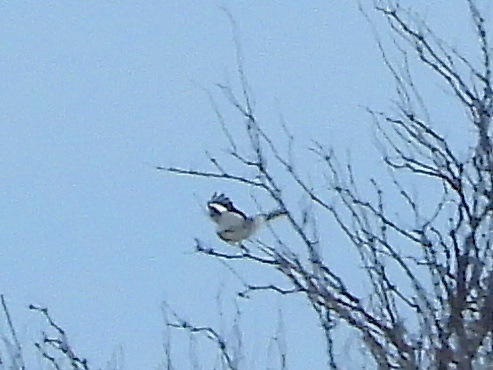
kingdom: Animalia
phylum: Chordata
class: Aves
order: Passeriformes
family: Laniidae
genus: Lanius
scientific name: Lanius excubitor
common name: Great grey shrike
